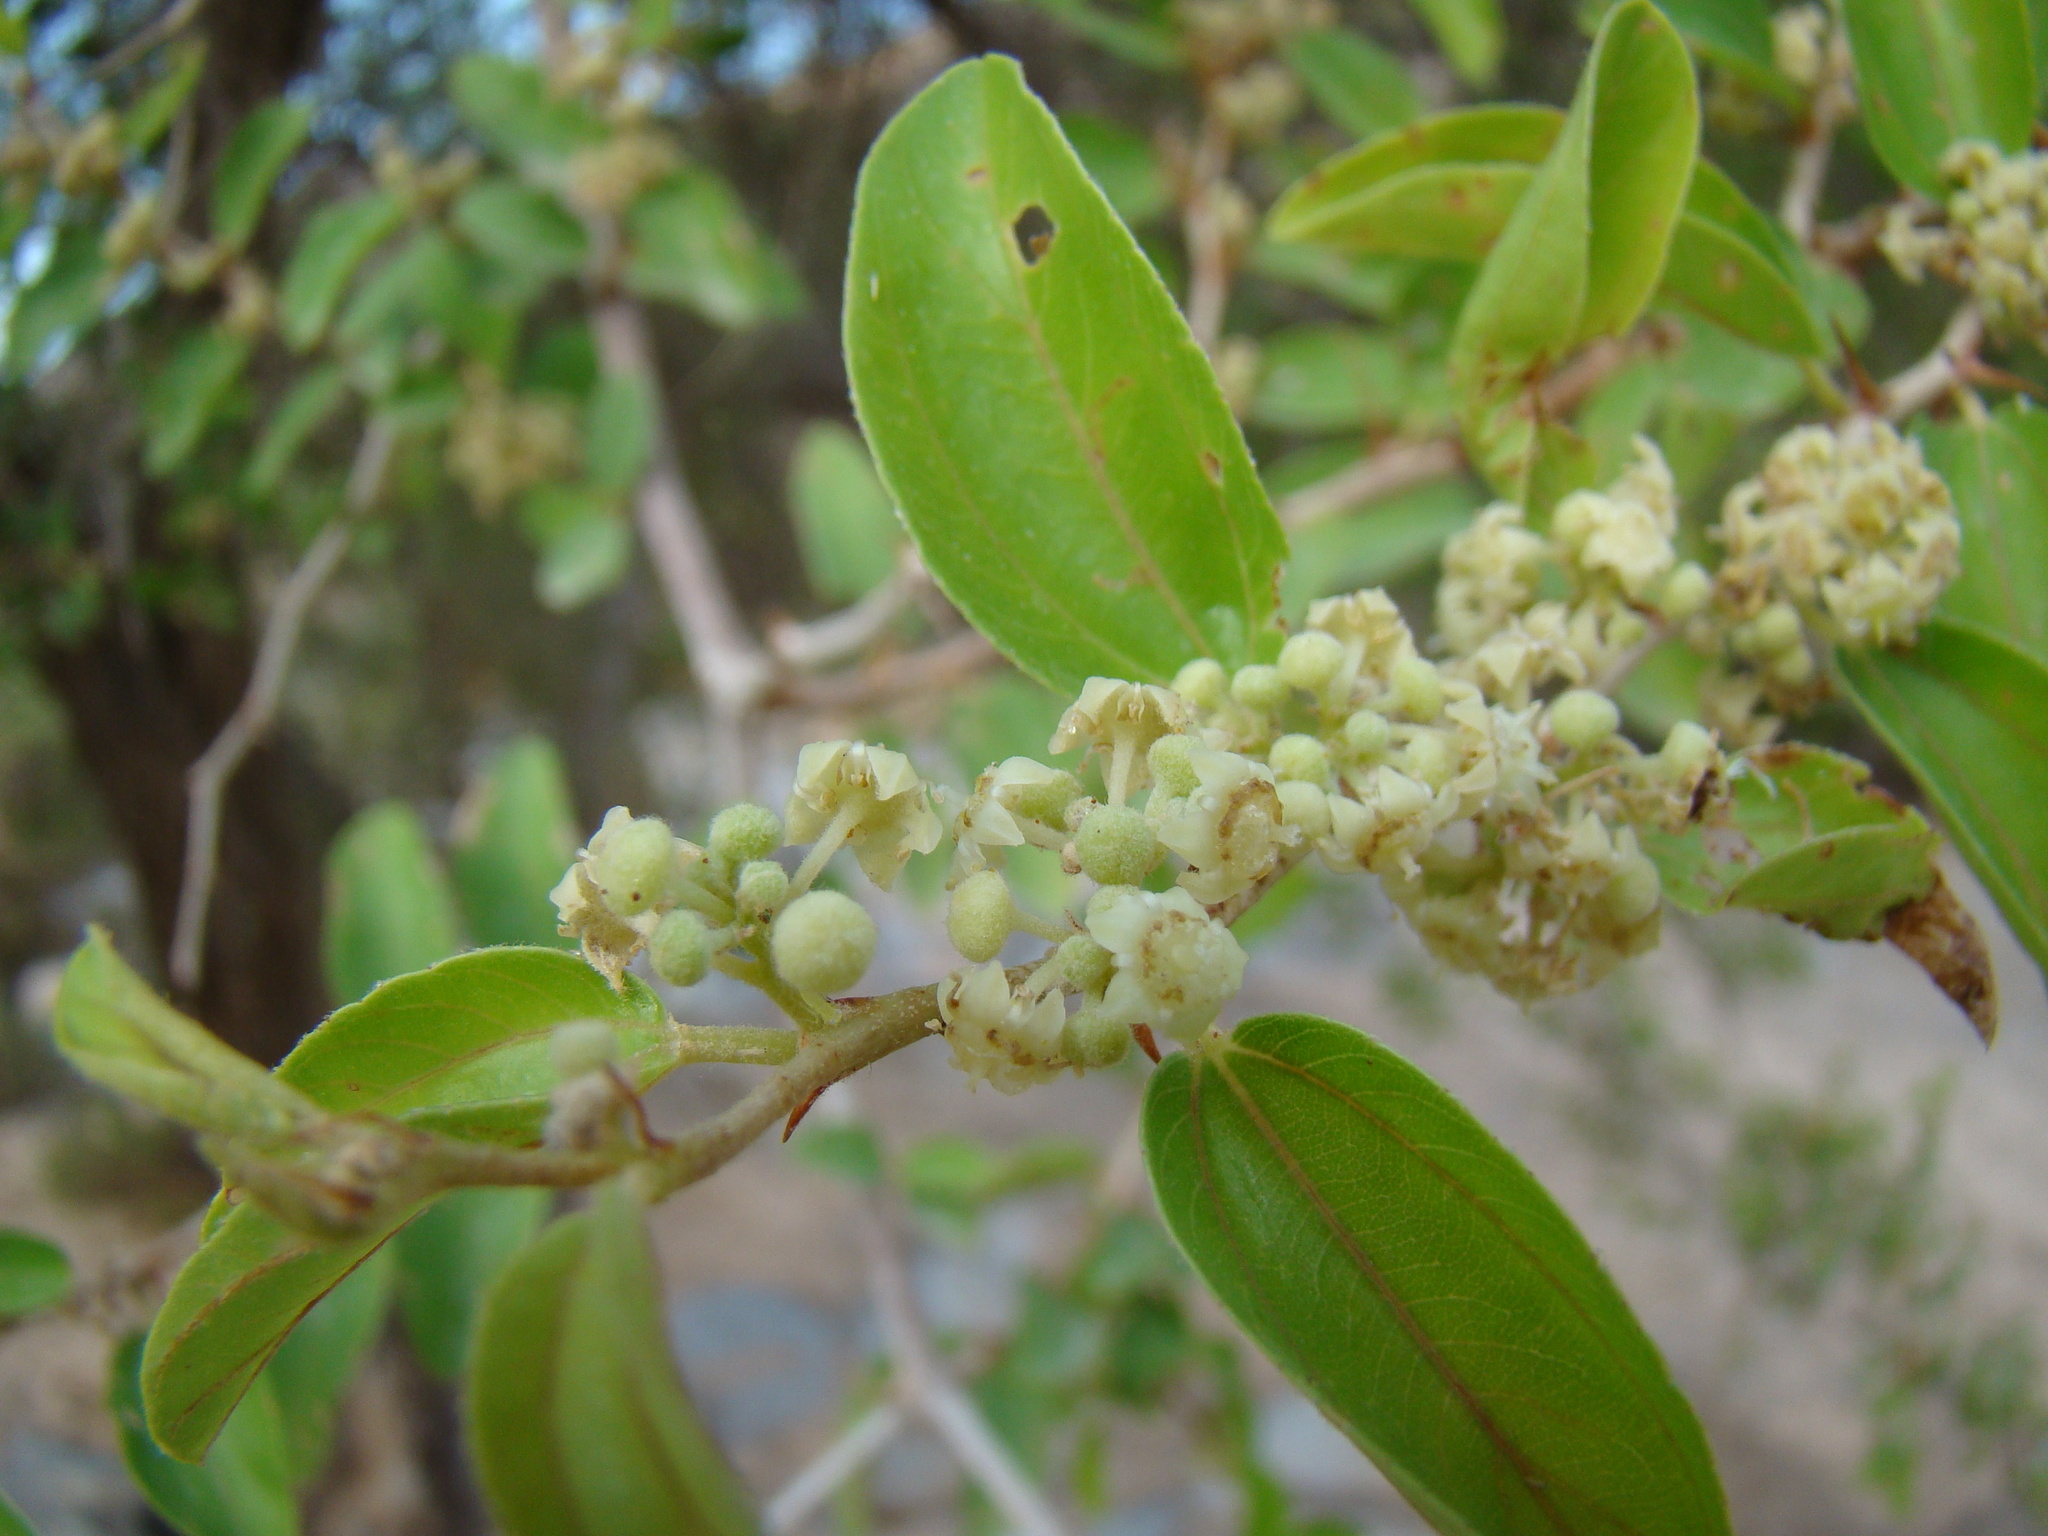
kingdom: Plantae
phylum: Tracheophyta
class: Magnoliopsida
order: Rosales
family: Rhamnaceae
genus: Ziziphus
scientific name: Ziziphus spina-christi
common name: Syrian christ-thorn
